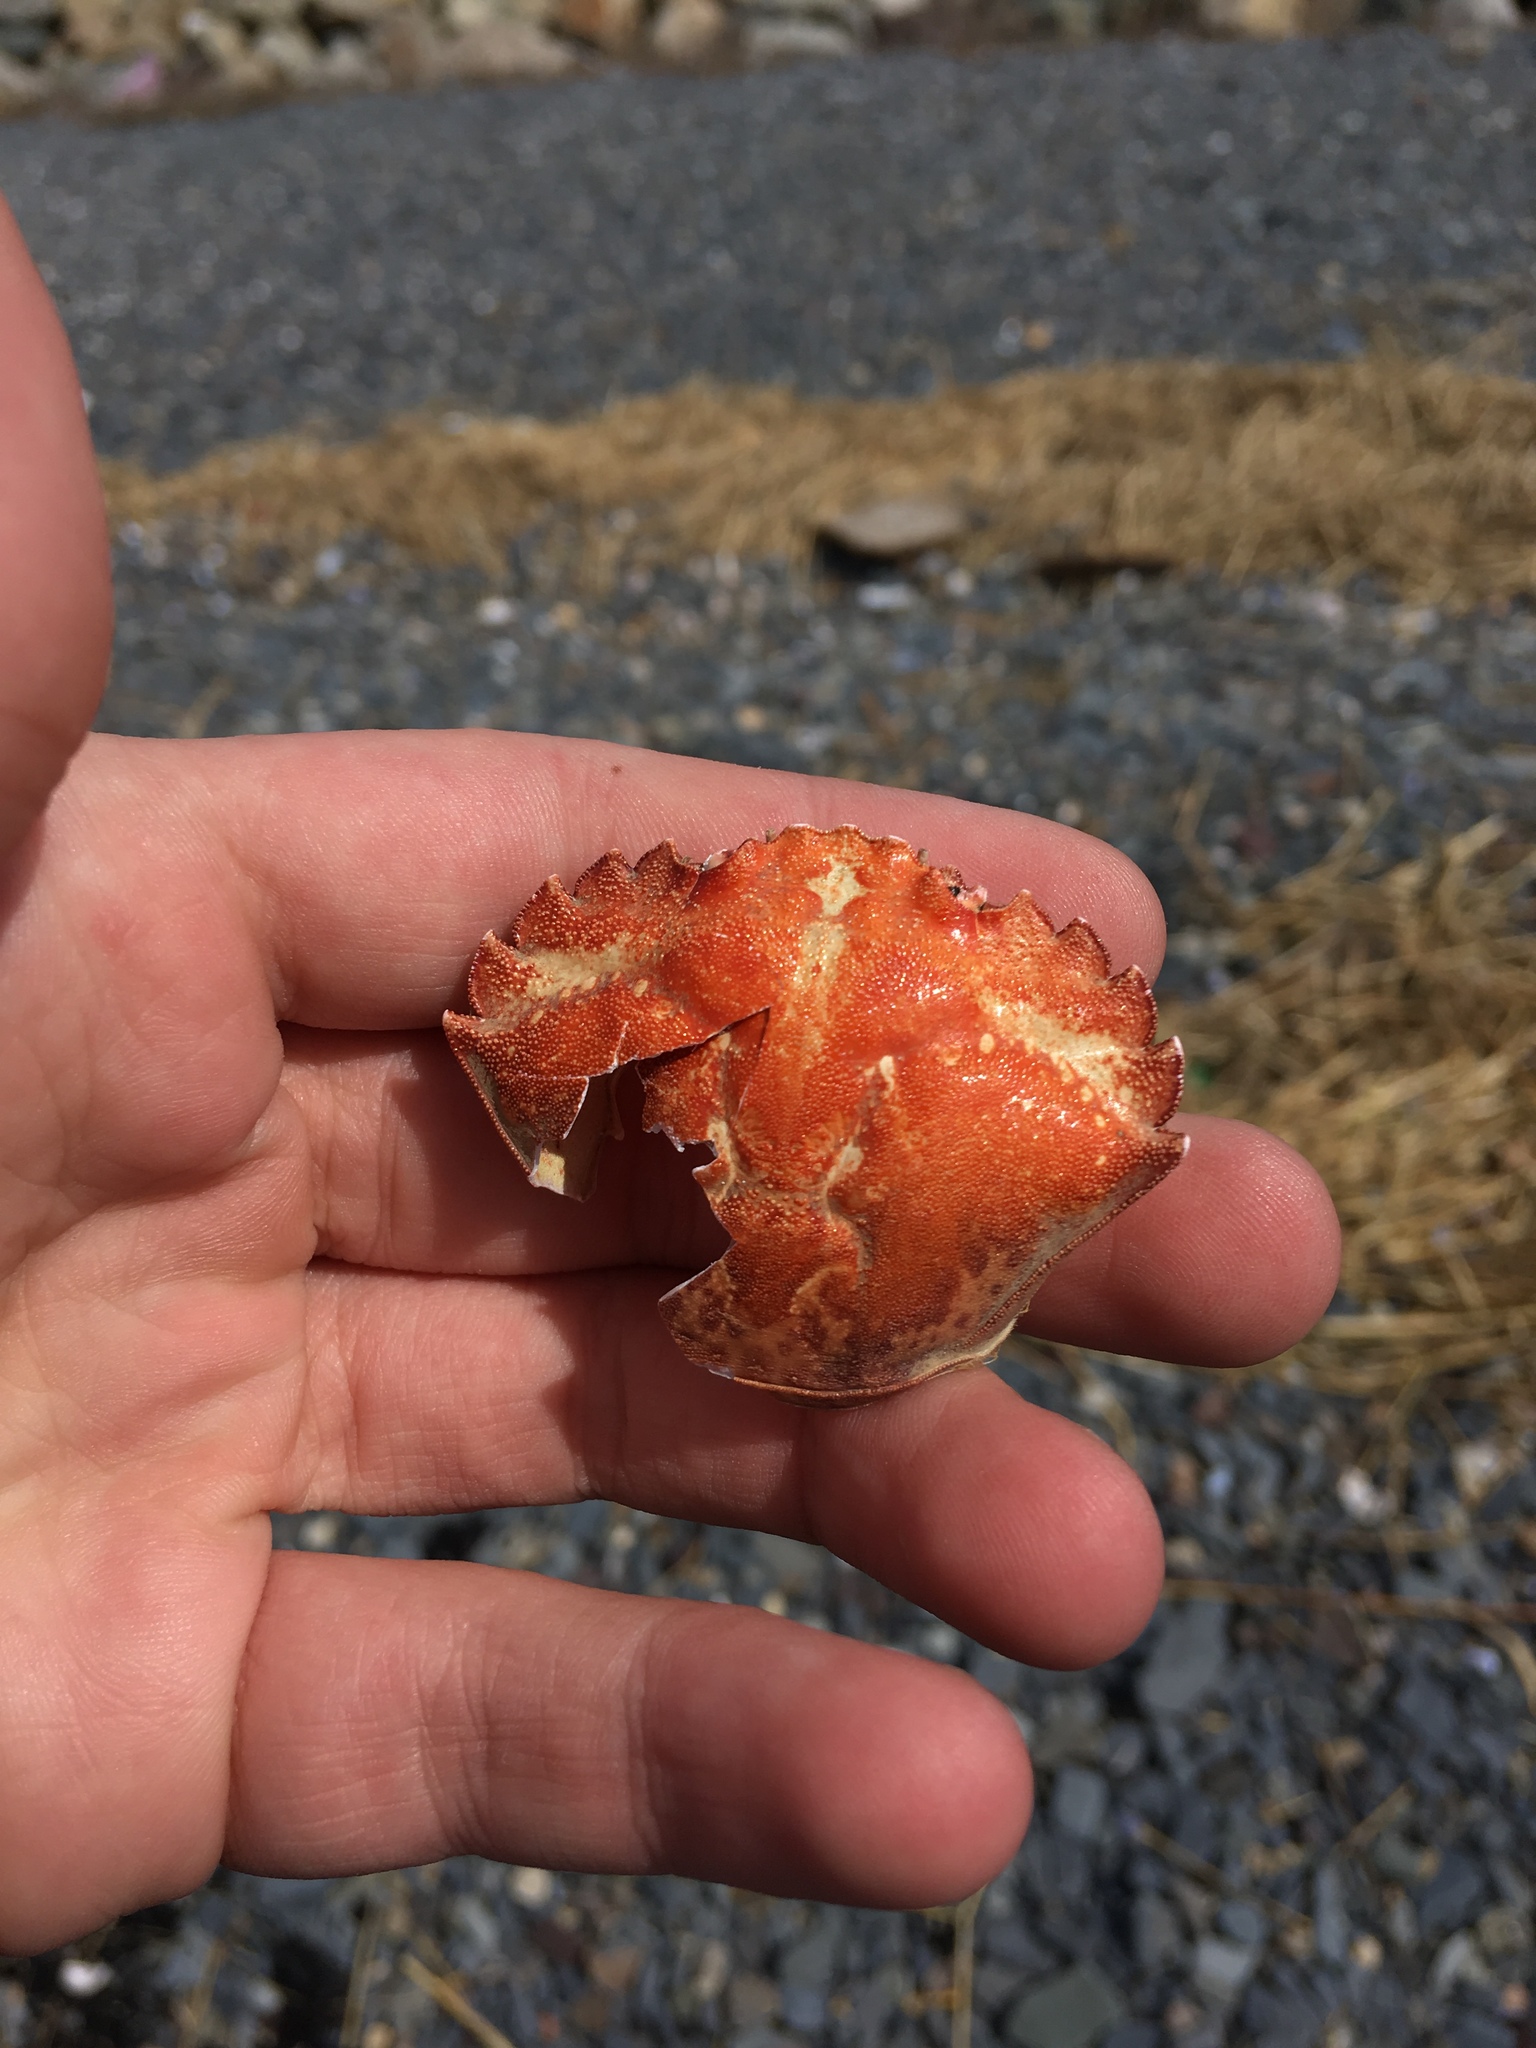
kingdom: Animalia
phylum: Arthropoda
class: Malacostraca
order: Decapoda
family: Carcinidae
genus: Carcinus
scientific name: Carcinus maenas
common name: European green crab
